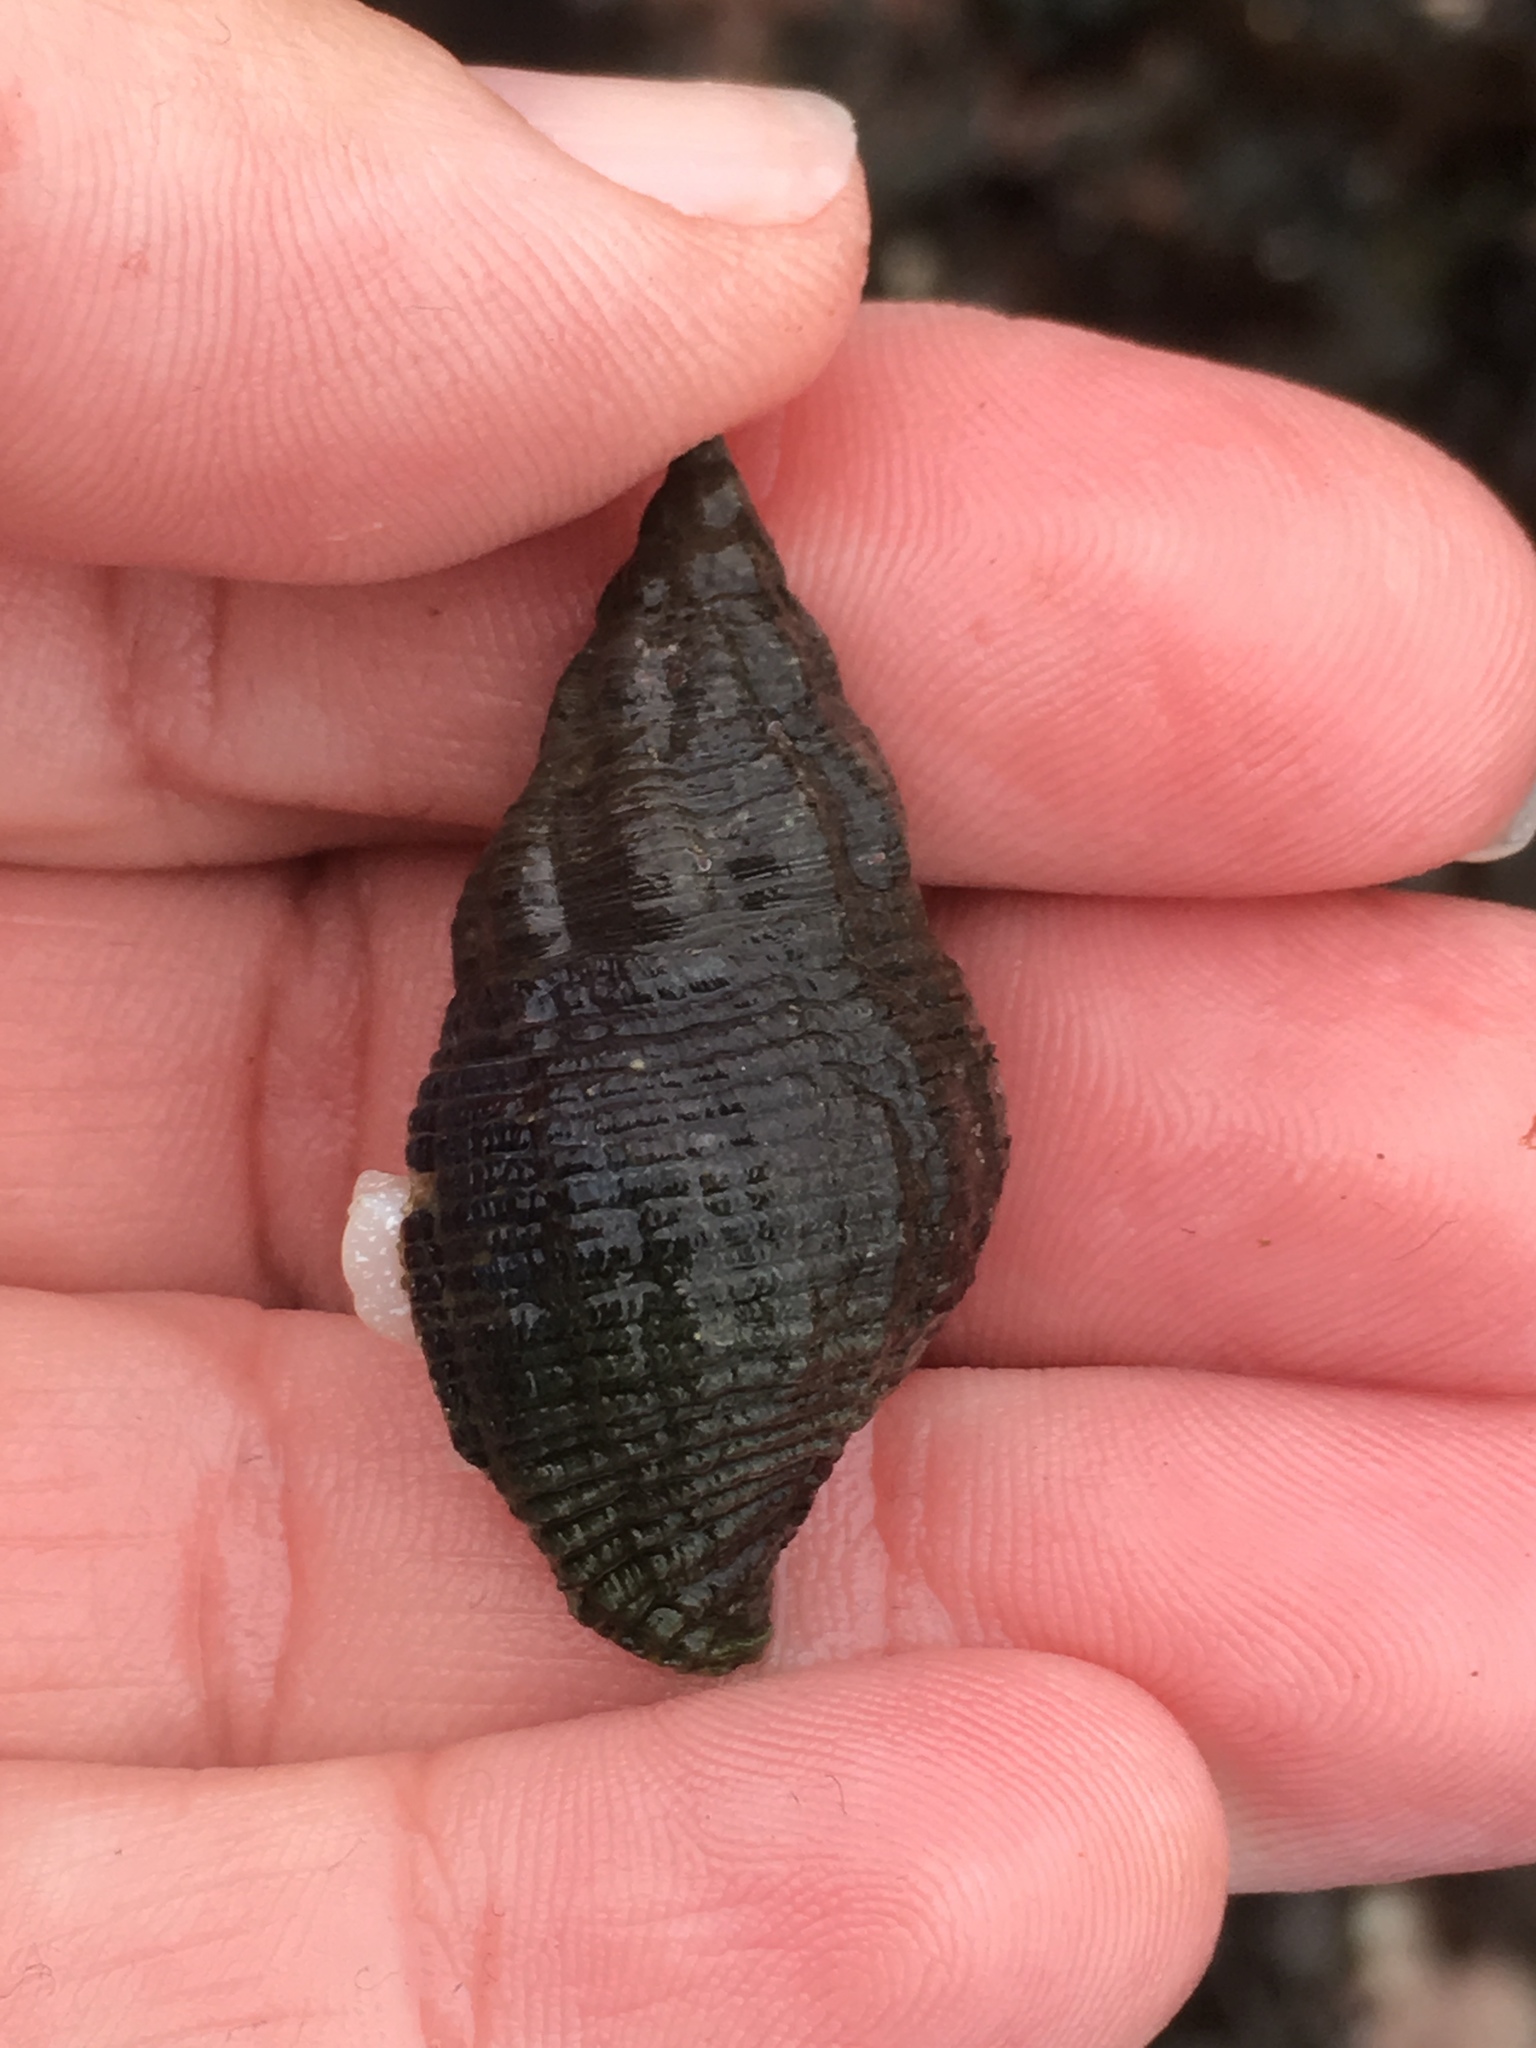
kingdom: Animalia
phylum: Mollusca
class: Gastropoda
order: Neogastropoda
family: Tudiclidae
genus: Lirabuccinum
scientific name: Lirabuccinum dirum
